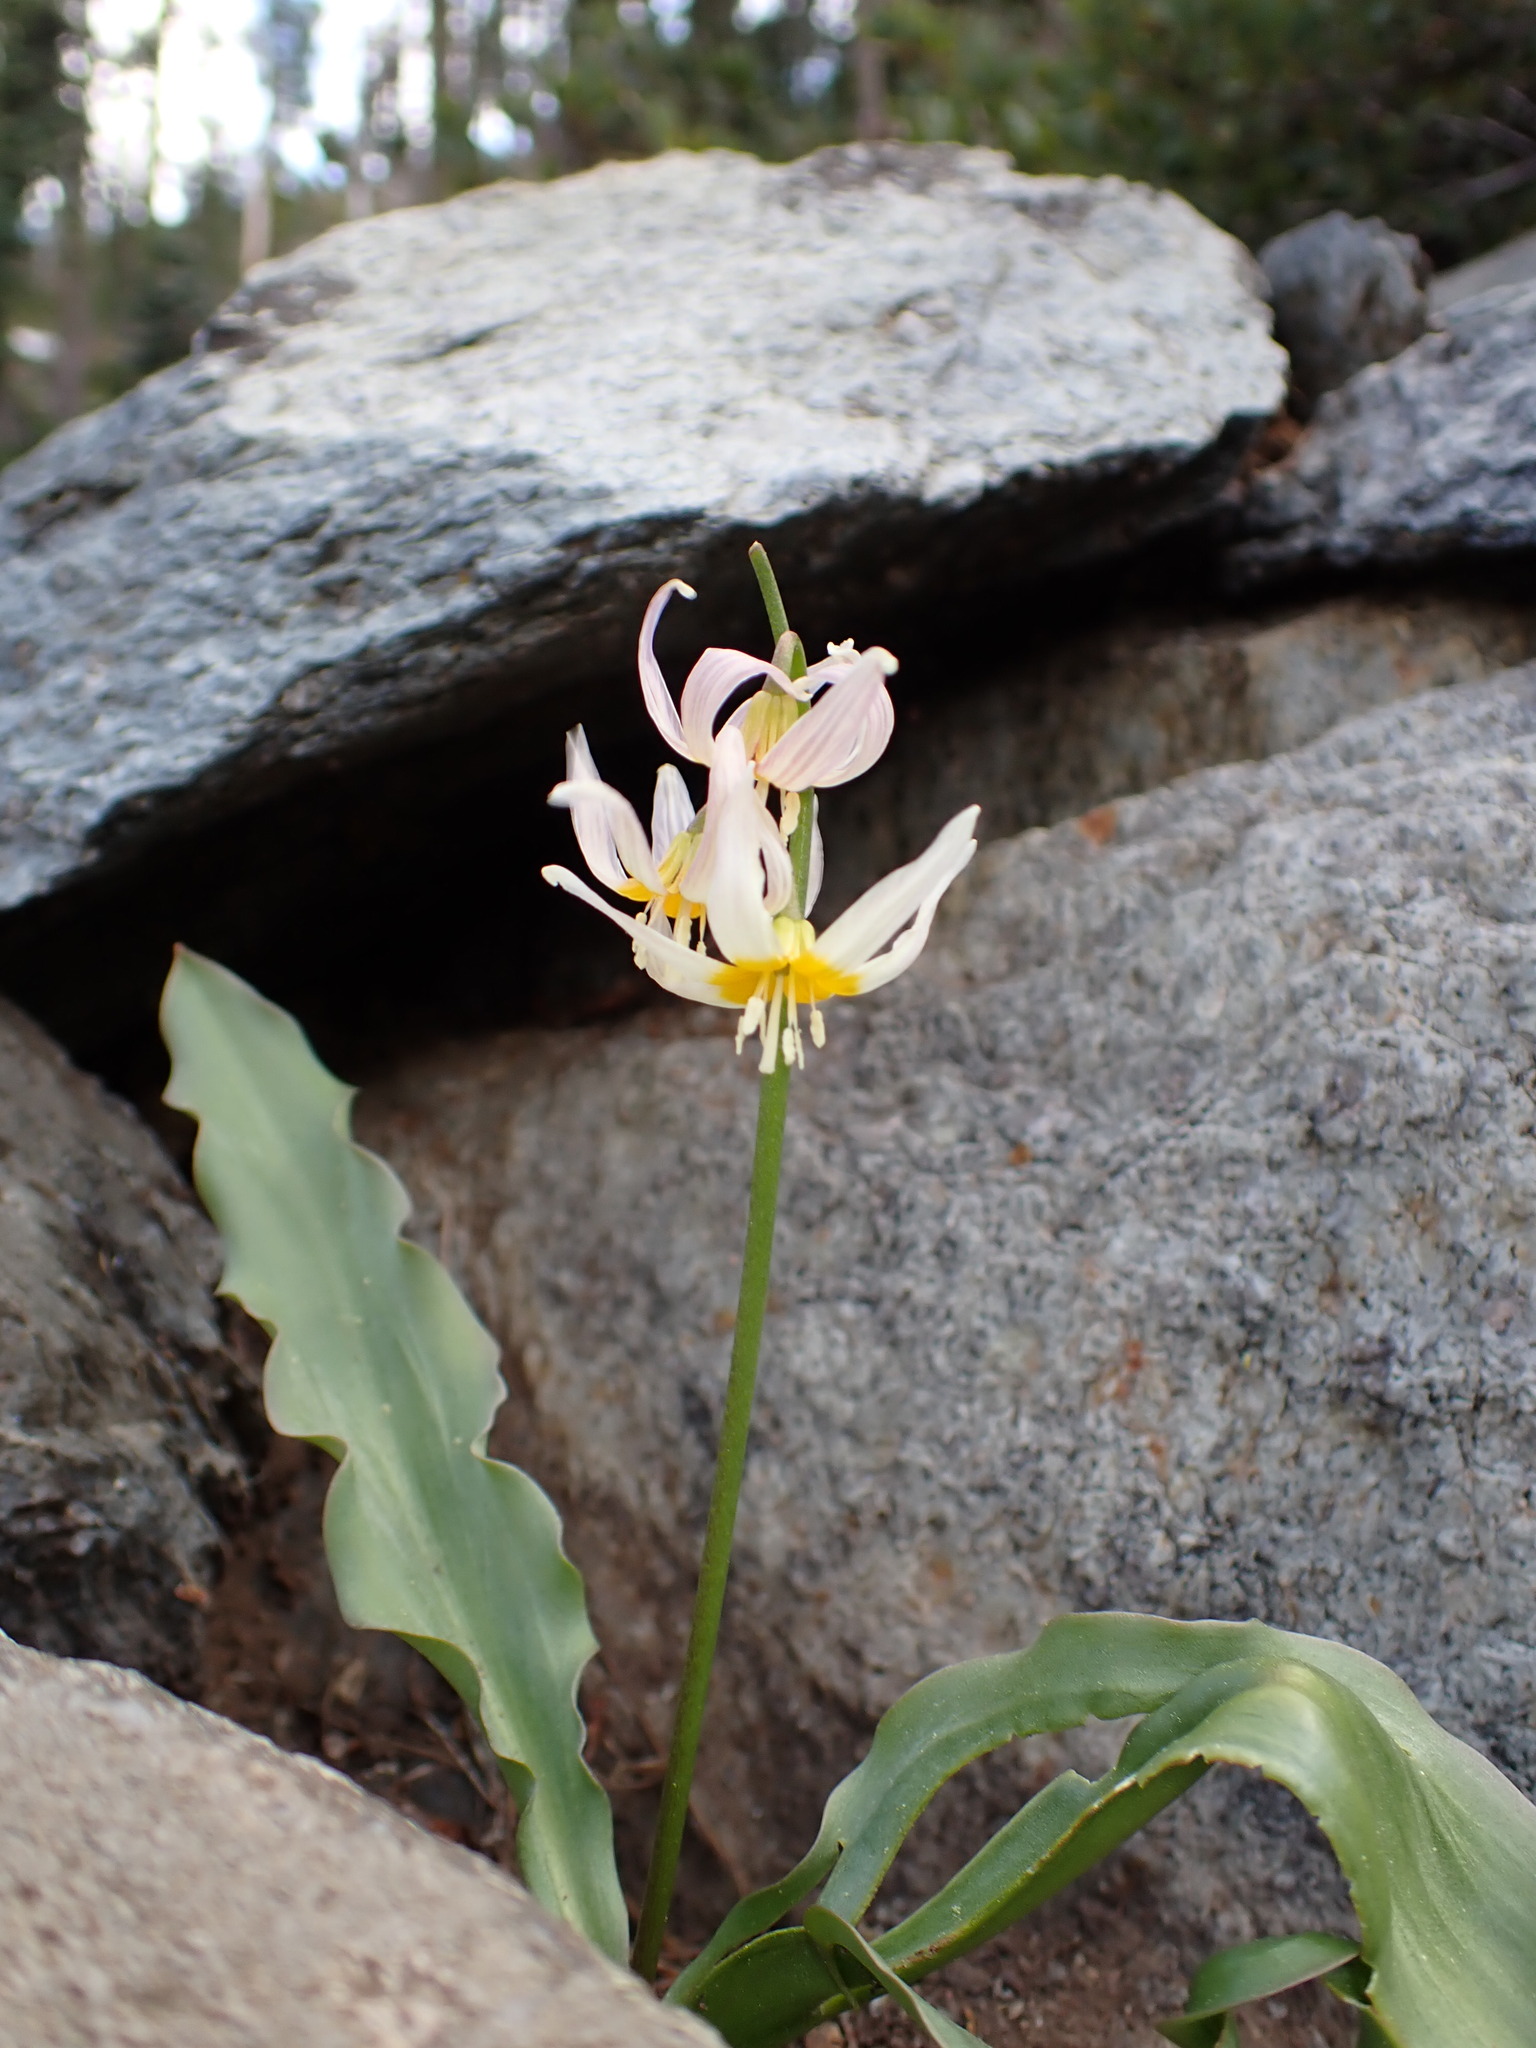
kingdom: Plantae
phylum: Tracheophyta
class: Liliopsida
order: Liliales
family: Liliaceae
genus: Erythronium
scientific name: Erythronium purpurascens
